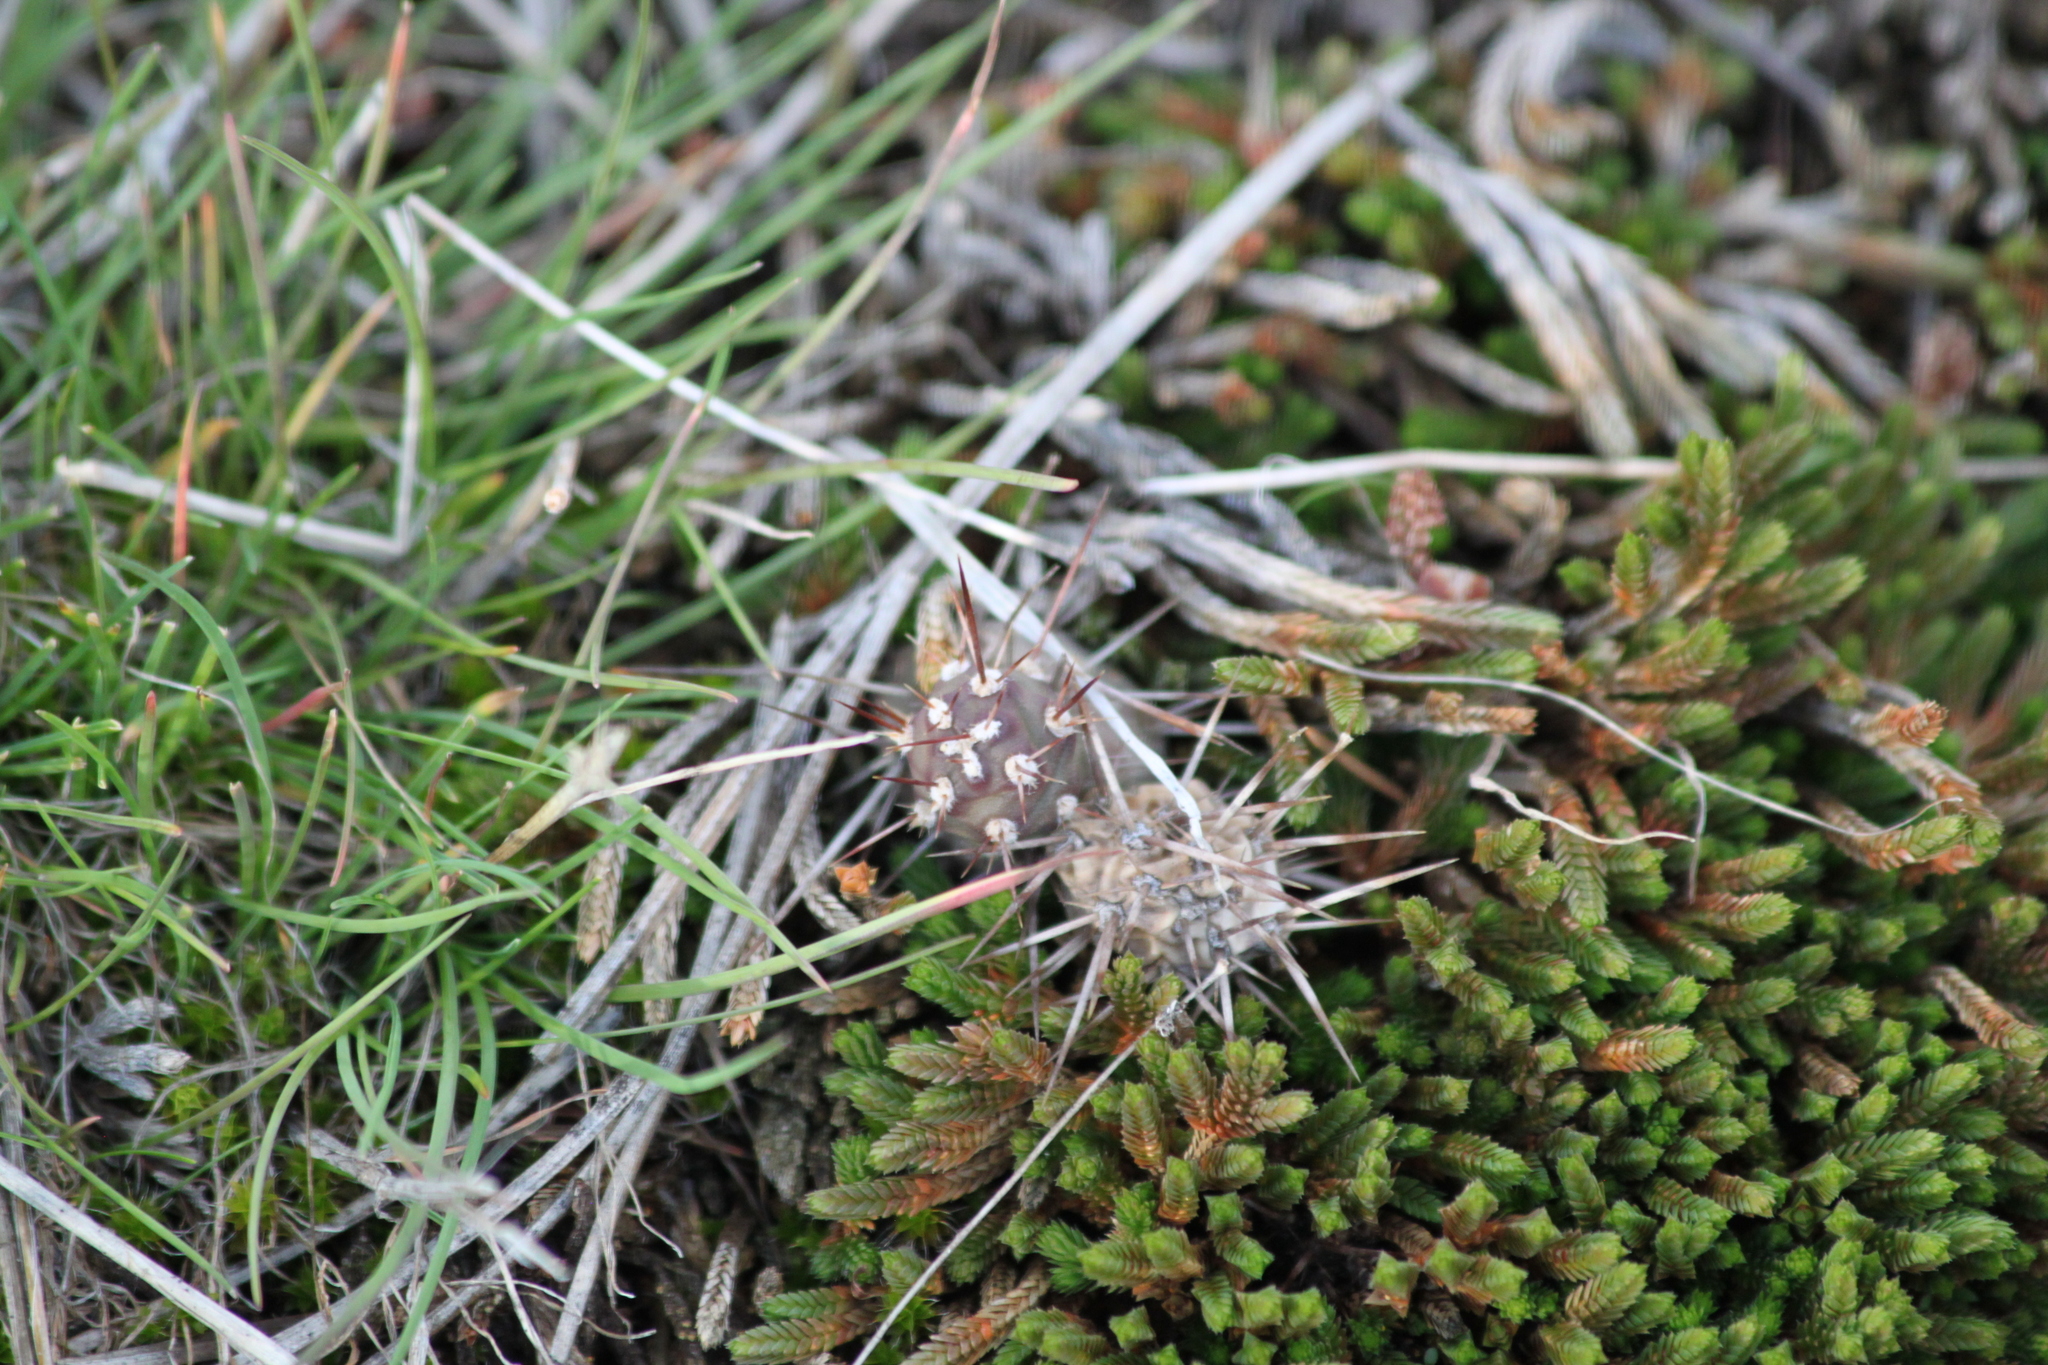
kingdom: Plantae
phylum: Tracheophyta
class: Magnoliopsida
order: Caryophyllales
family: Cactaceae
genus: Opuntia
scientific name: Opuntia fragilis
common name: Brittle cactus
